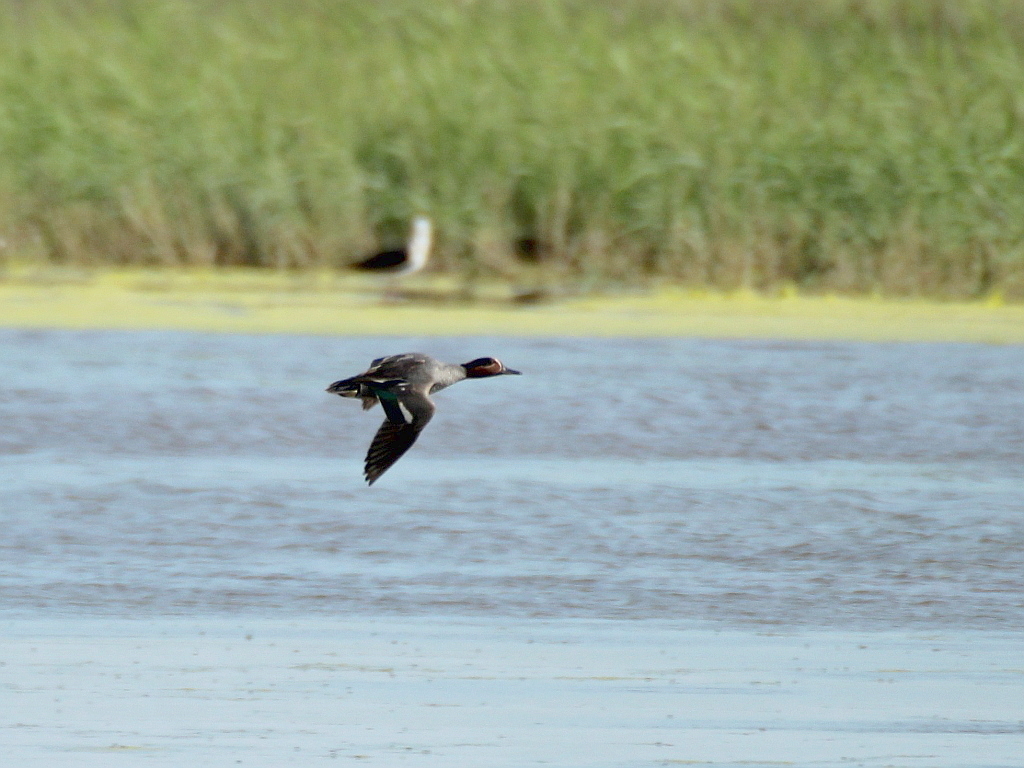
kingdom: Animalia
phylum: Chordata
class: Aves
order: Anseriformes
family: Anatidae
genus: Anas
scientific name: Anas crecca
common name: Eurasian teal
